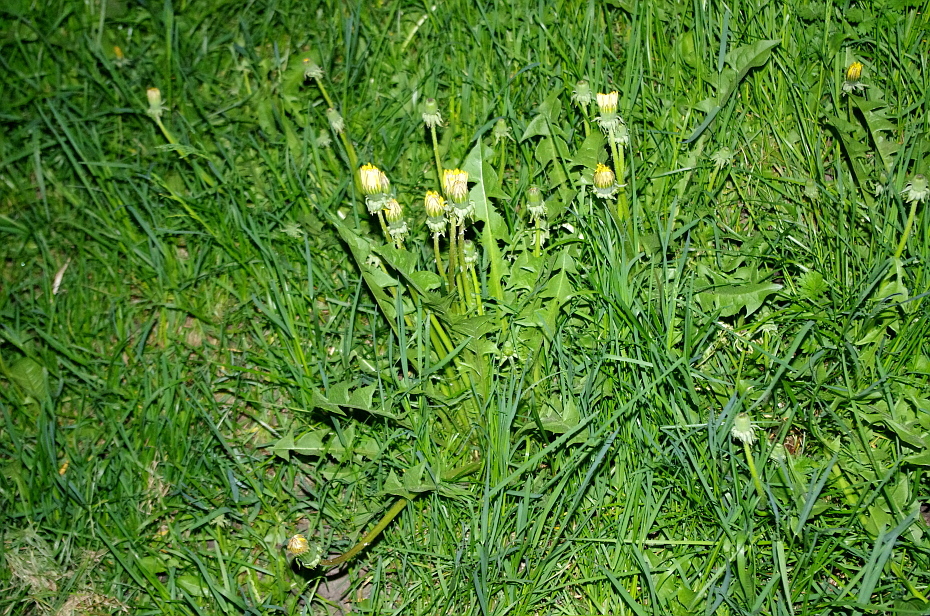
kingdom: Plantae
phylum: Tracheophyta
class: Magnoliopsida
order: Asterales
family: Asteraceae
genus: Taraxacum
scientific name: Taraxacum officinale
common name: Common dandelion
